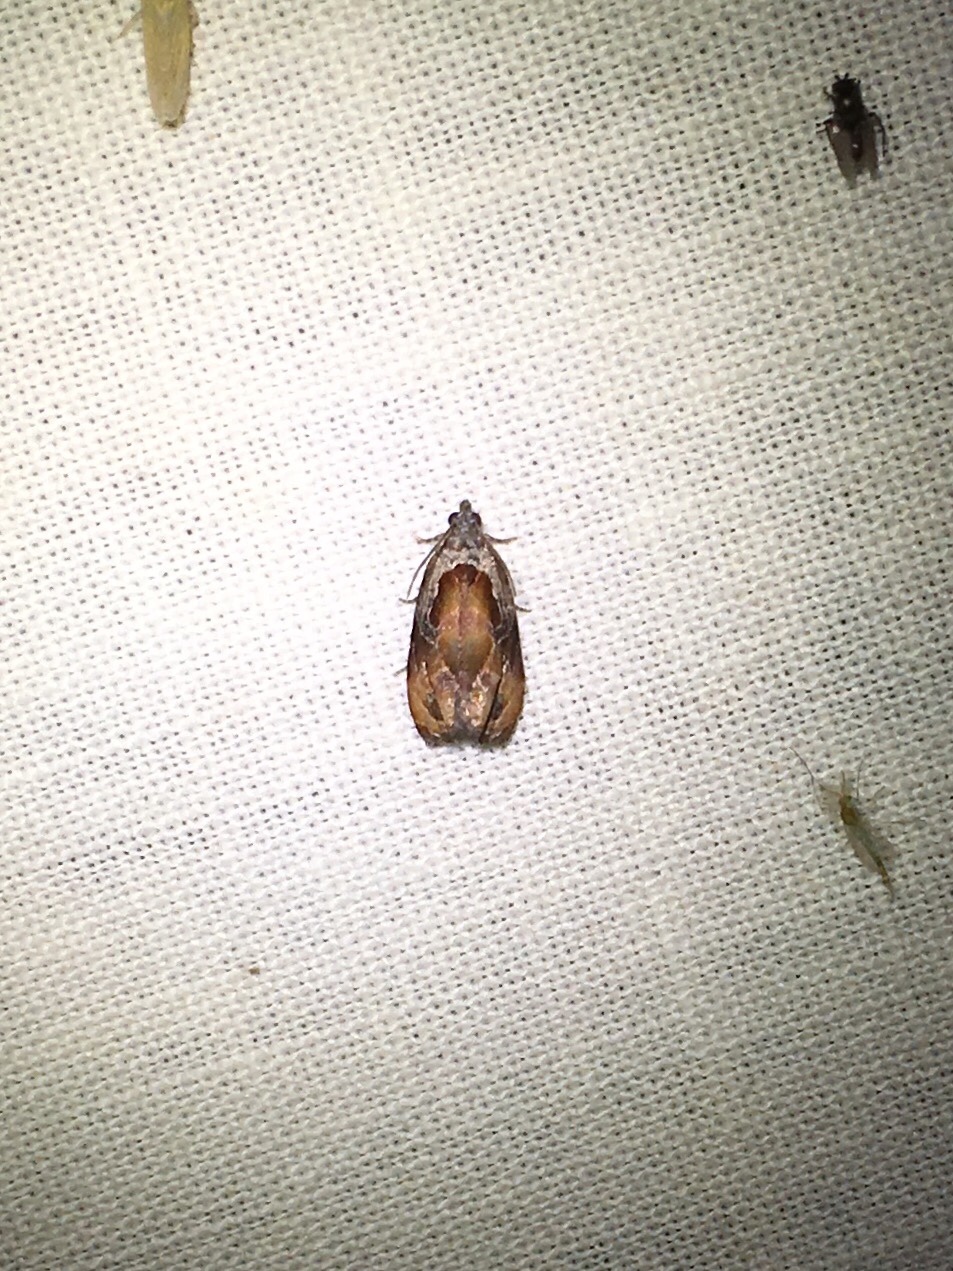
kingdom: Animalia
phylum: Arthropoda
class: Insecta
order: Lepidoptera
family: Tortricidae
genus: Zomaria
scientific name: Zomaria interruptolineana
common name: Broken-lined zomaria moth
